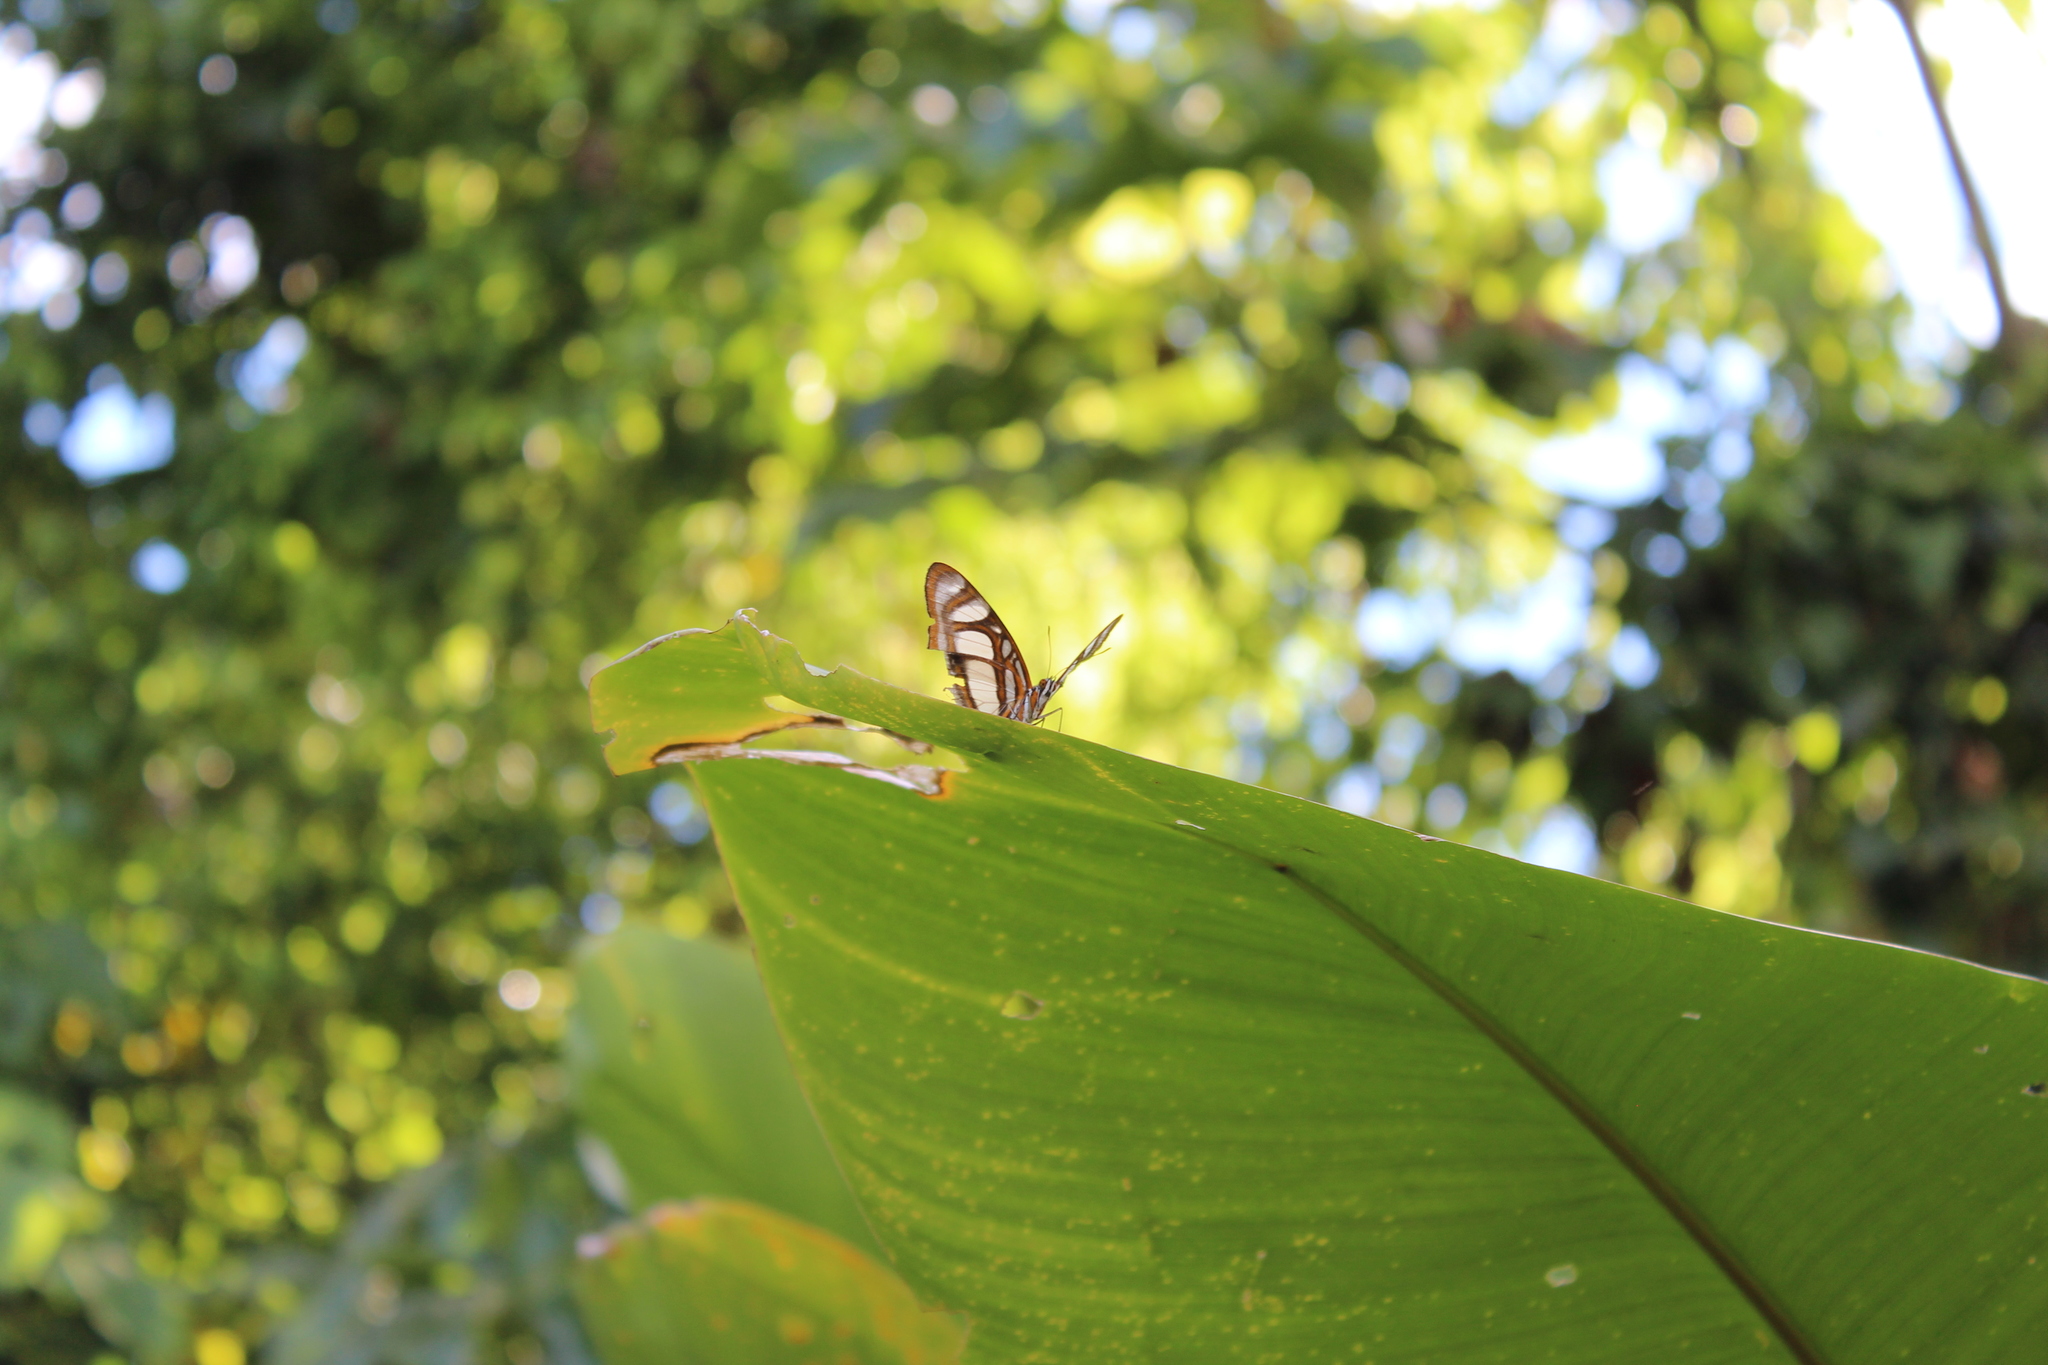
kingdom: Animalia
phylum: Arthropoda
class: Insecta
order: Lepidoptera
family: Nymphalidae
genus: Metamorpha
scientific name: Metamorpha elissa
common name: Elissa page
